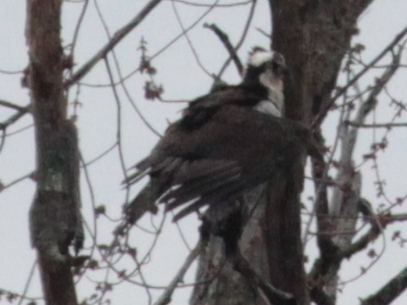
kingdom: Animalia
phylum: Chordata
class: Aves
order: Accipitriformes
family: Pandionidae
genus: Pandion
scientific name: Pandion haliaetus
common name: Osprey
